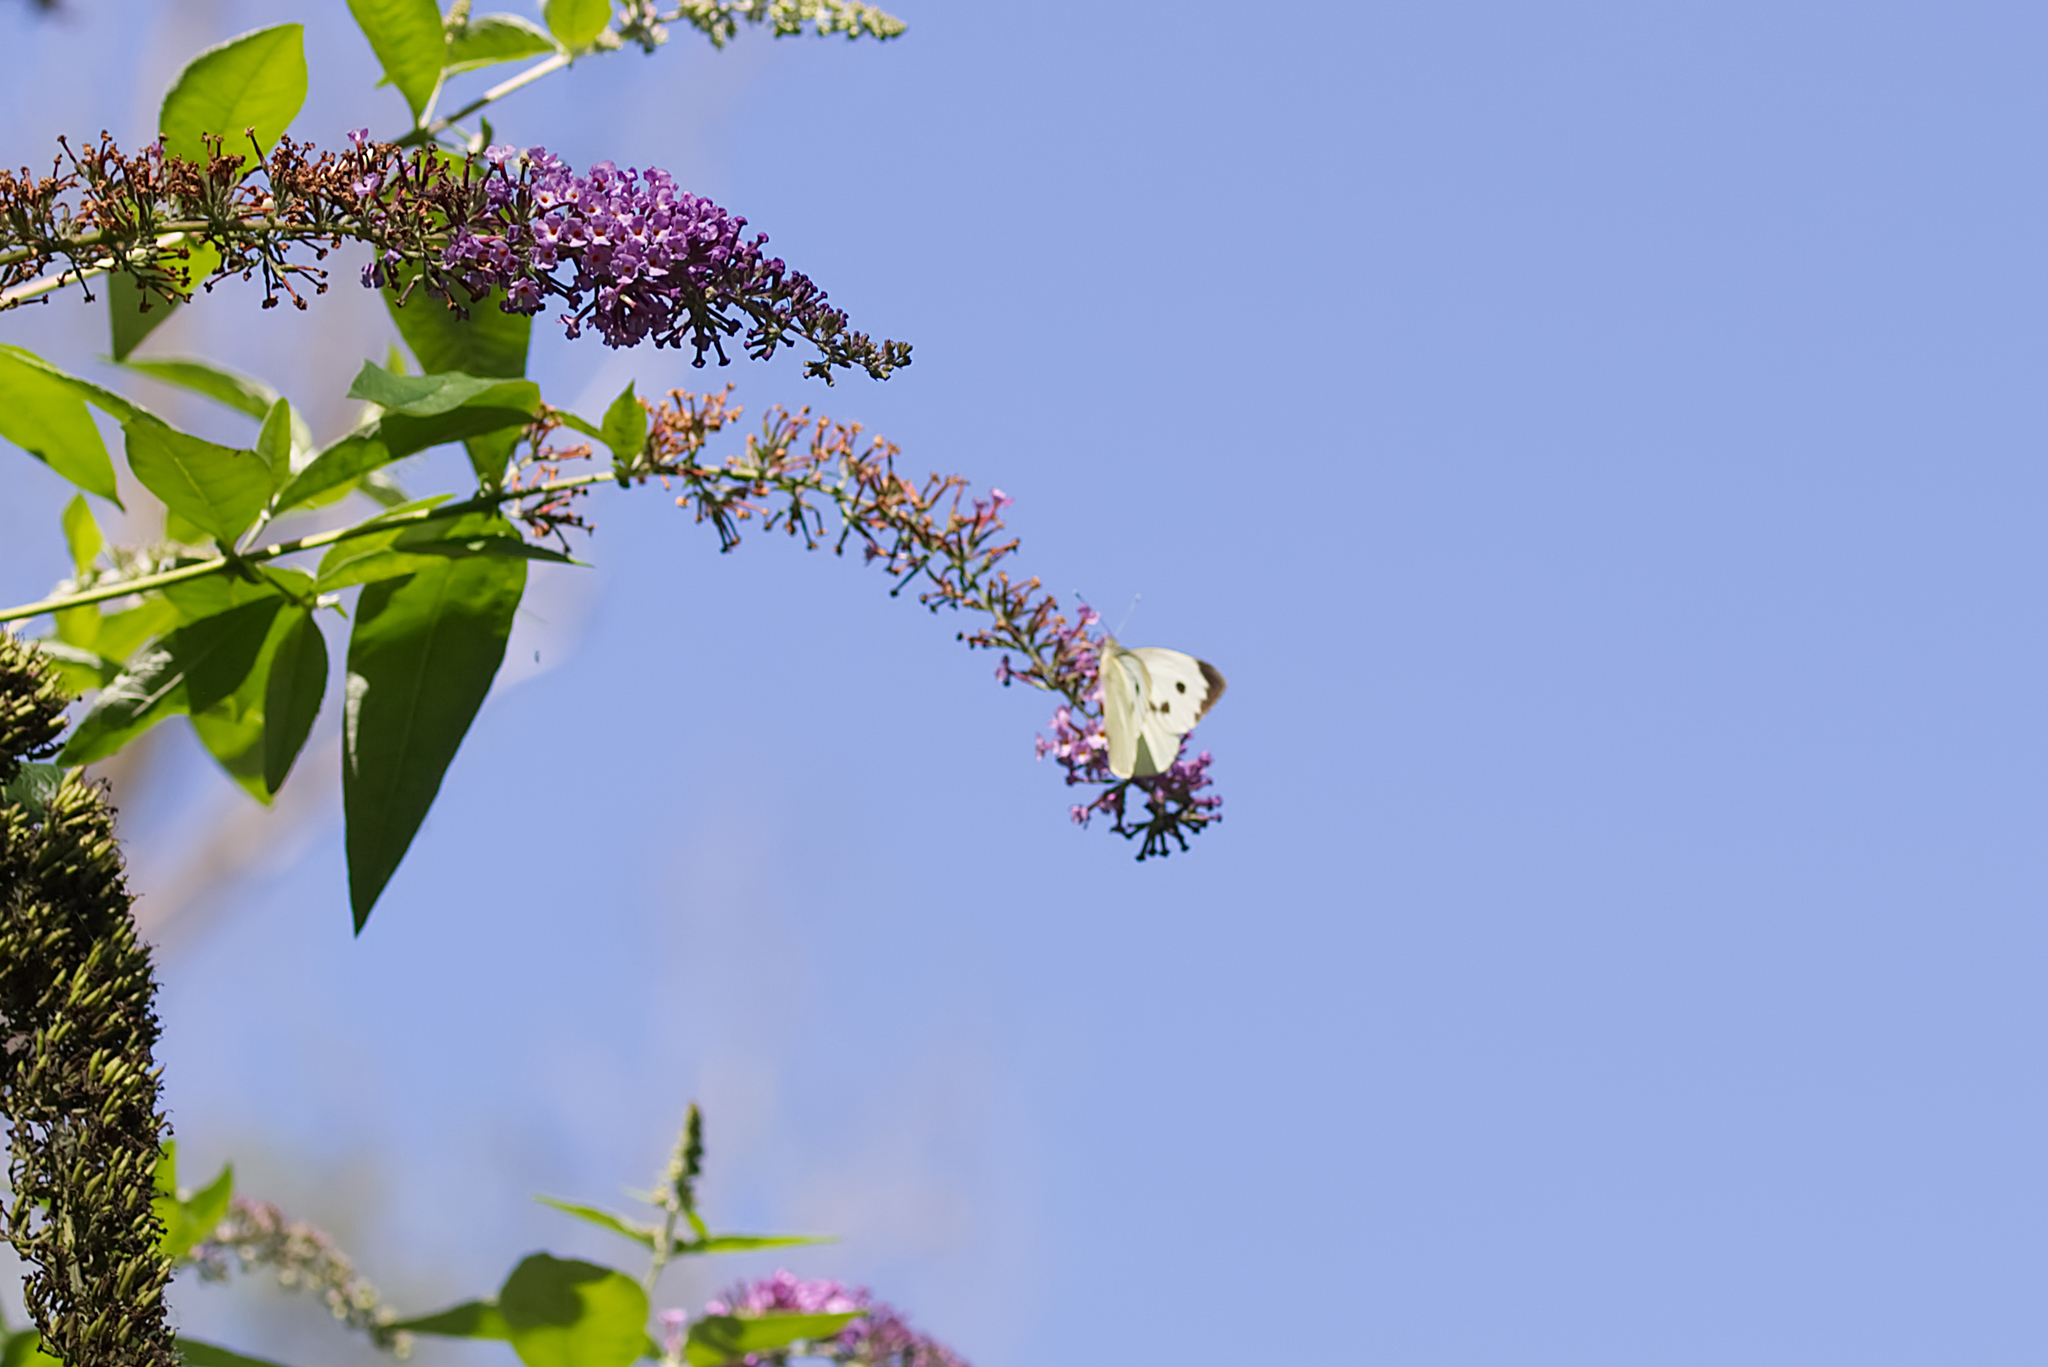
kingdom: Animalia
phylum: Arthropoda
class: Insecta
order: Lepidoptera
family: Pieridae
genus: Pieris
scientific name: Pieris brassicae
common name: Large white
